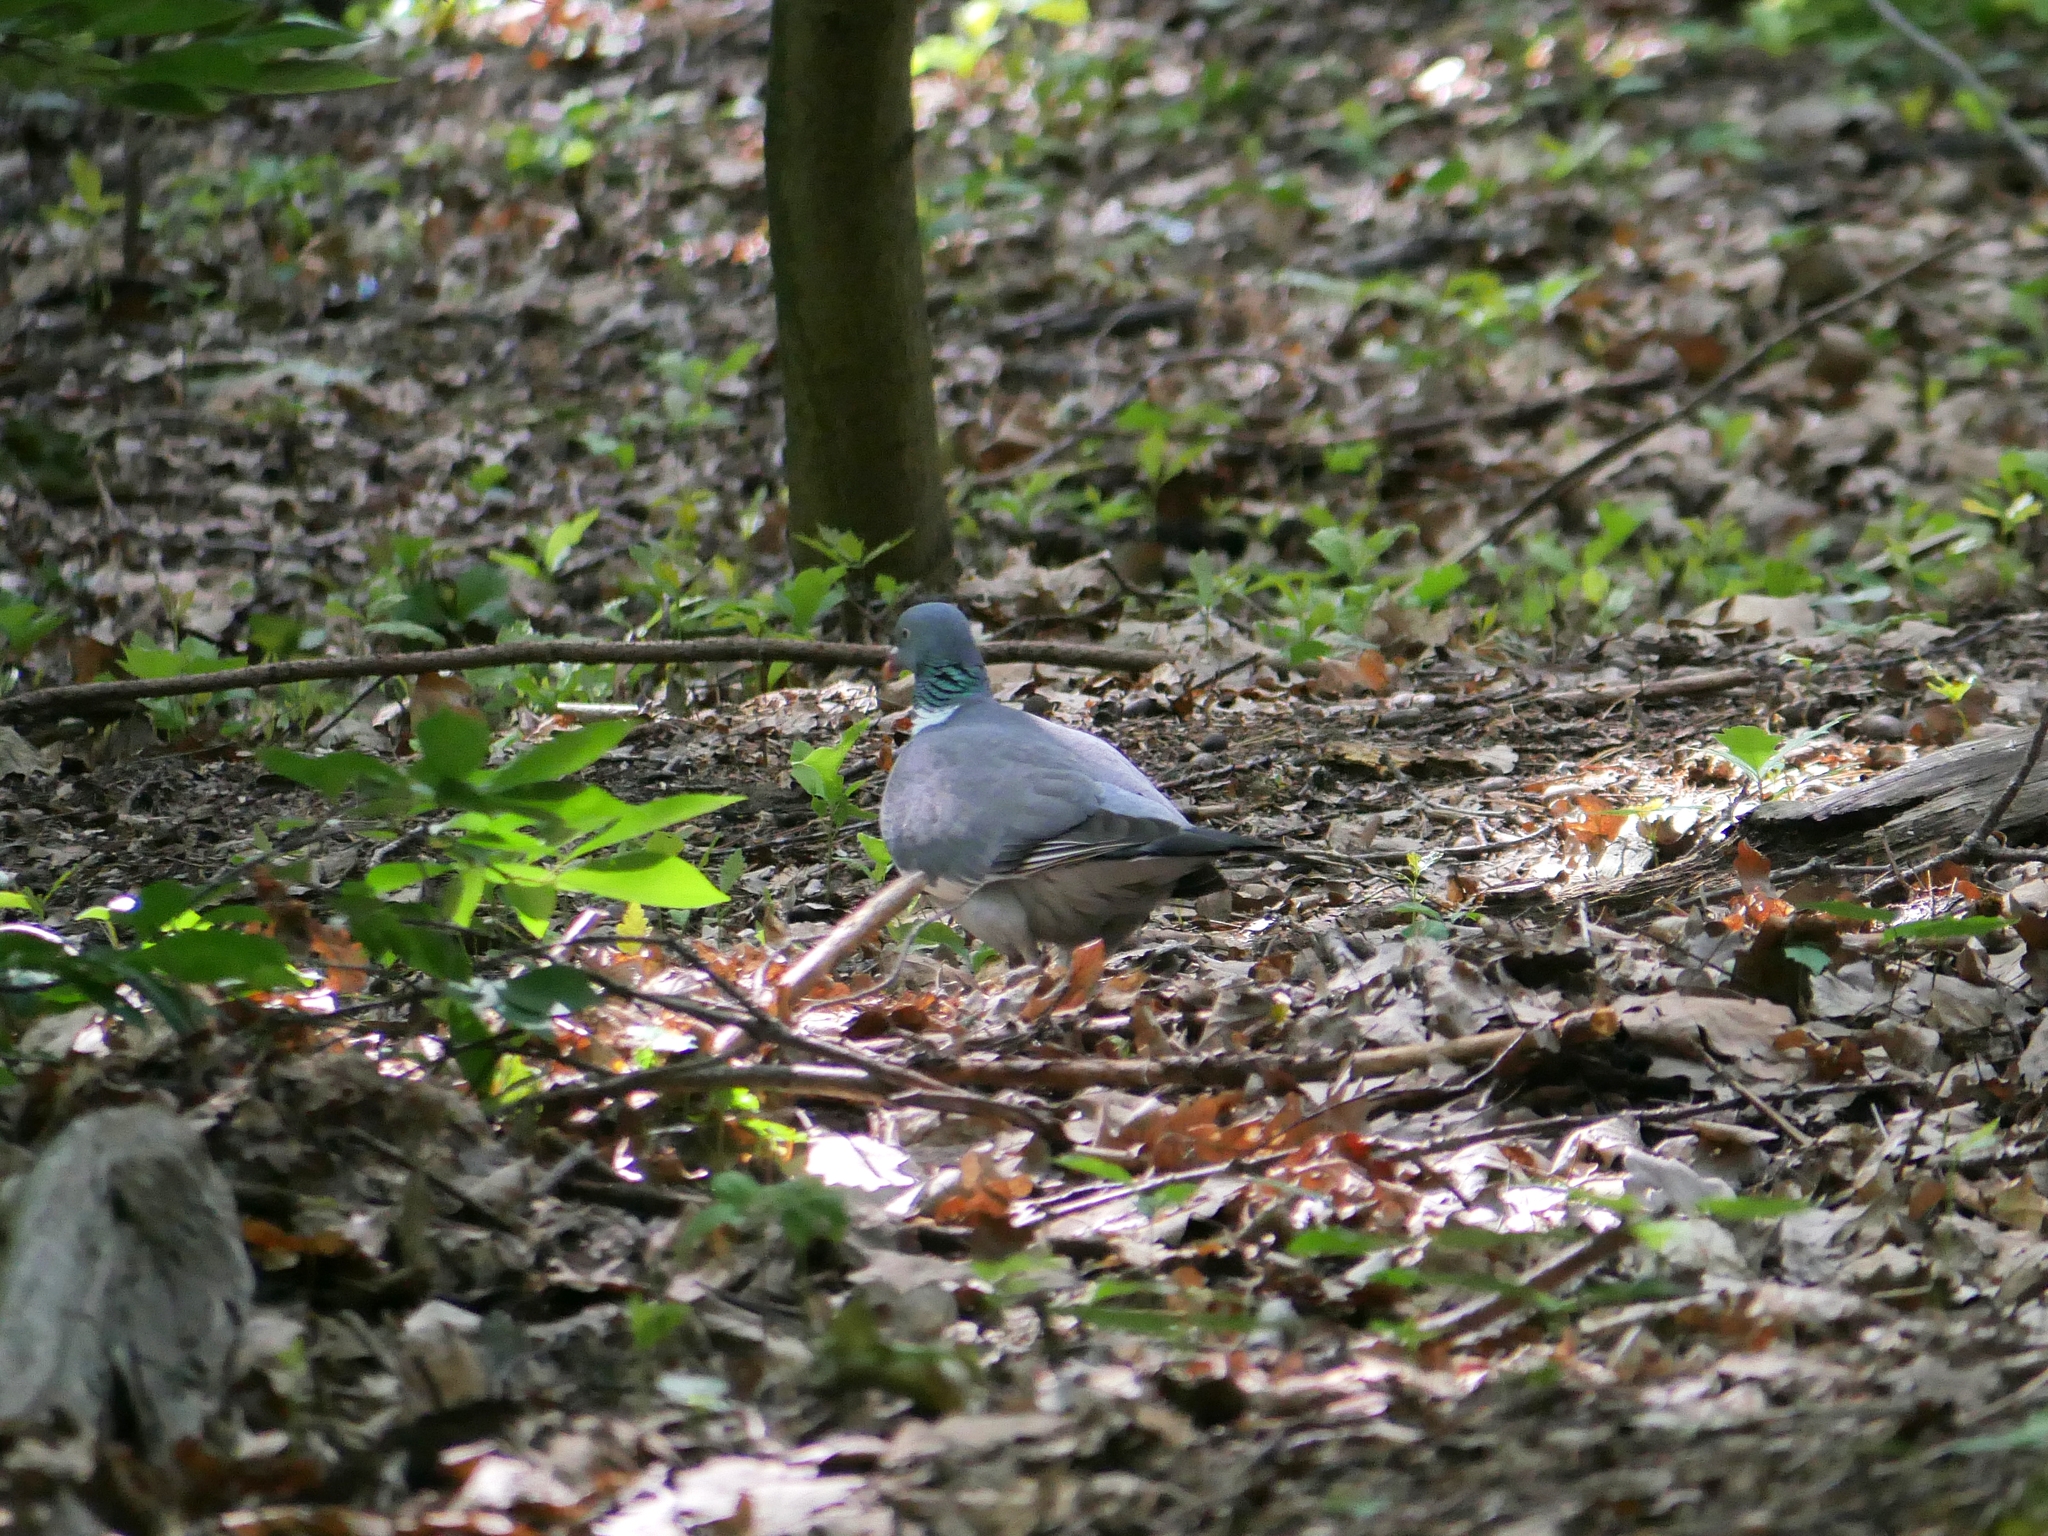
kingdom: Animalia
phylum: Chordata
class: Aves
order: Columbiformes
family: Columbidae
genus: Columba
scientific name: Columba palumbus
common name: Common wood pigeon
